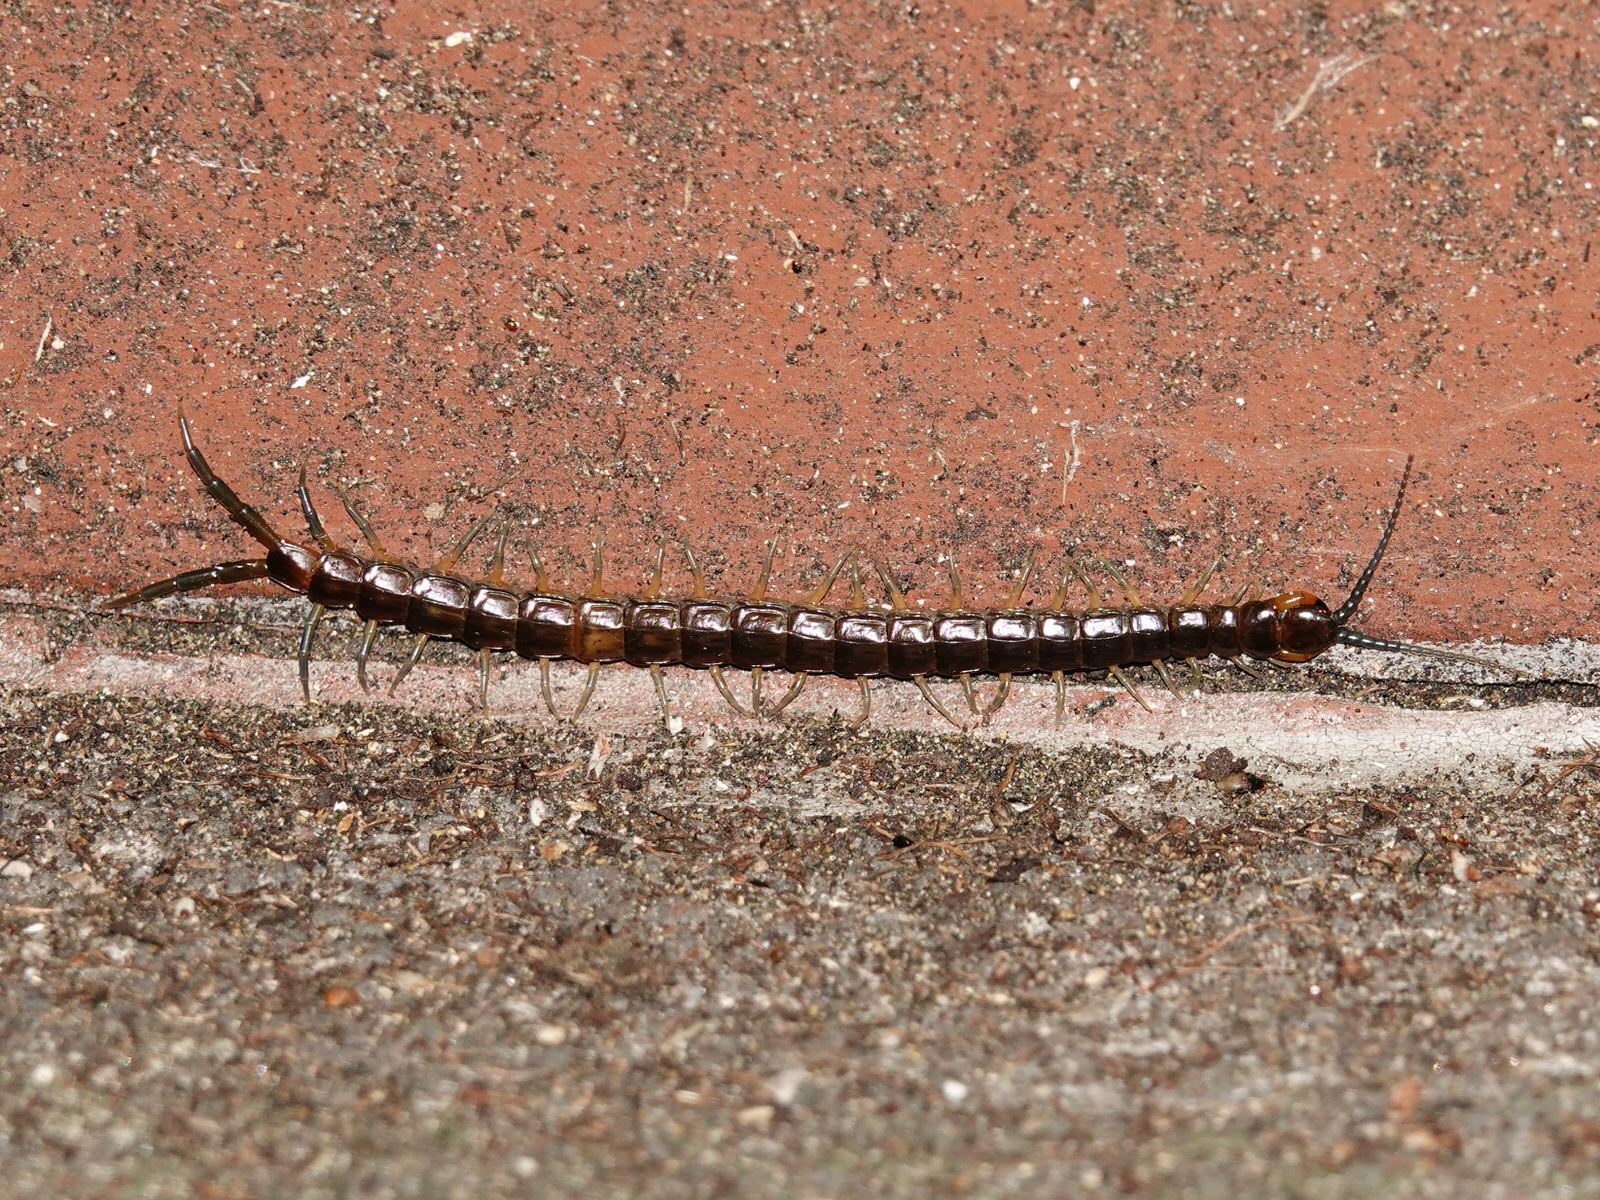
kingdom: Animalia
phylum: Arthropoda
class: Chilopoda
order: Scolopendromorpha
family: Scolopendridae
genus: Cormocephalus
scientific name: Cormocephalus rubriceps
